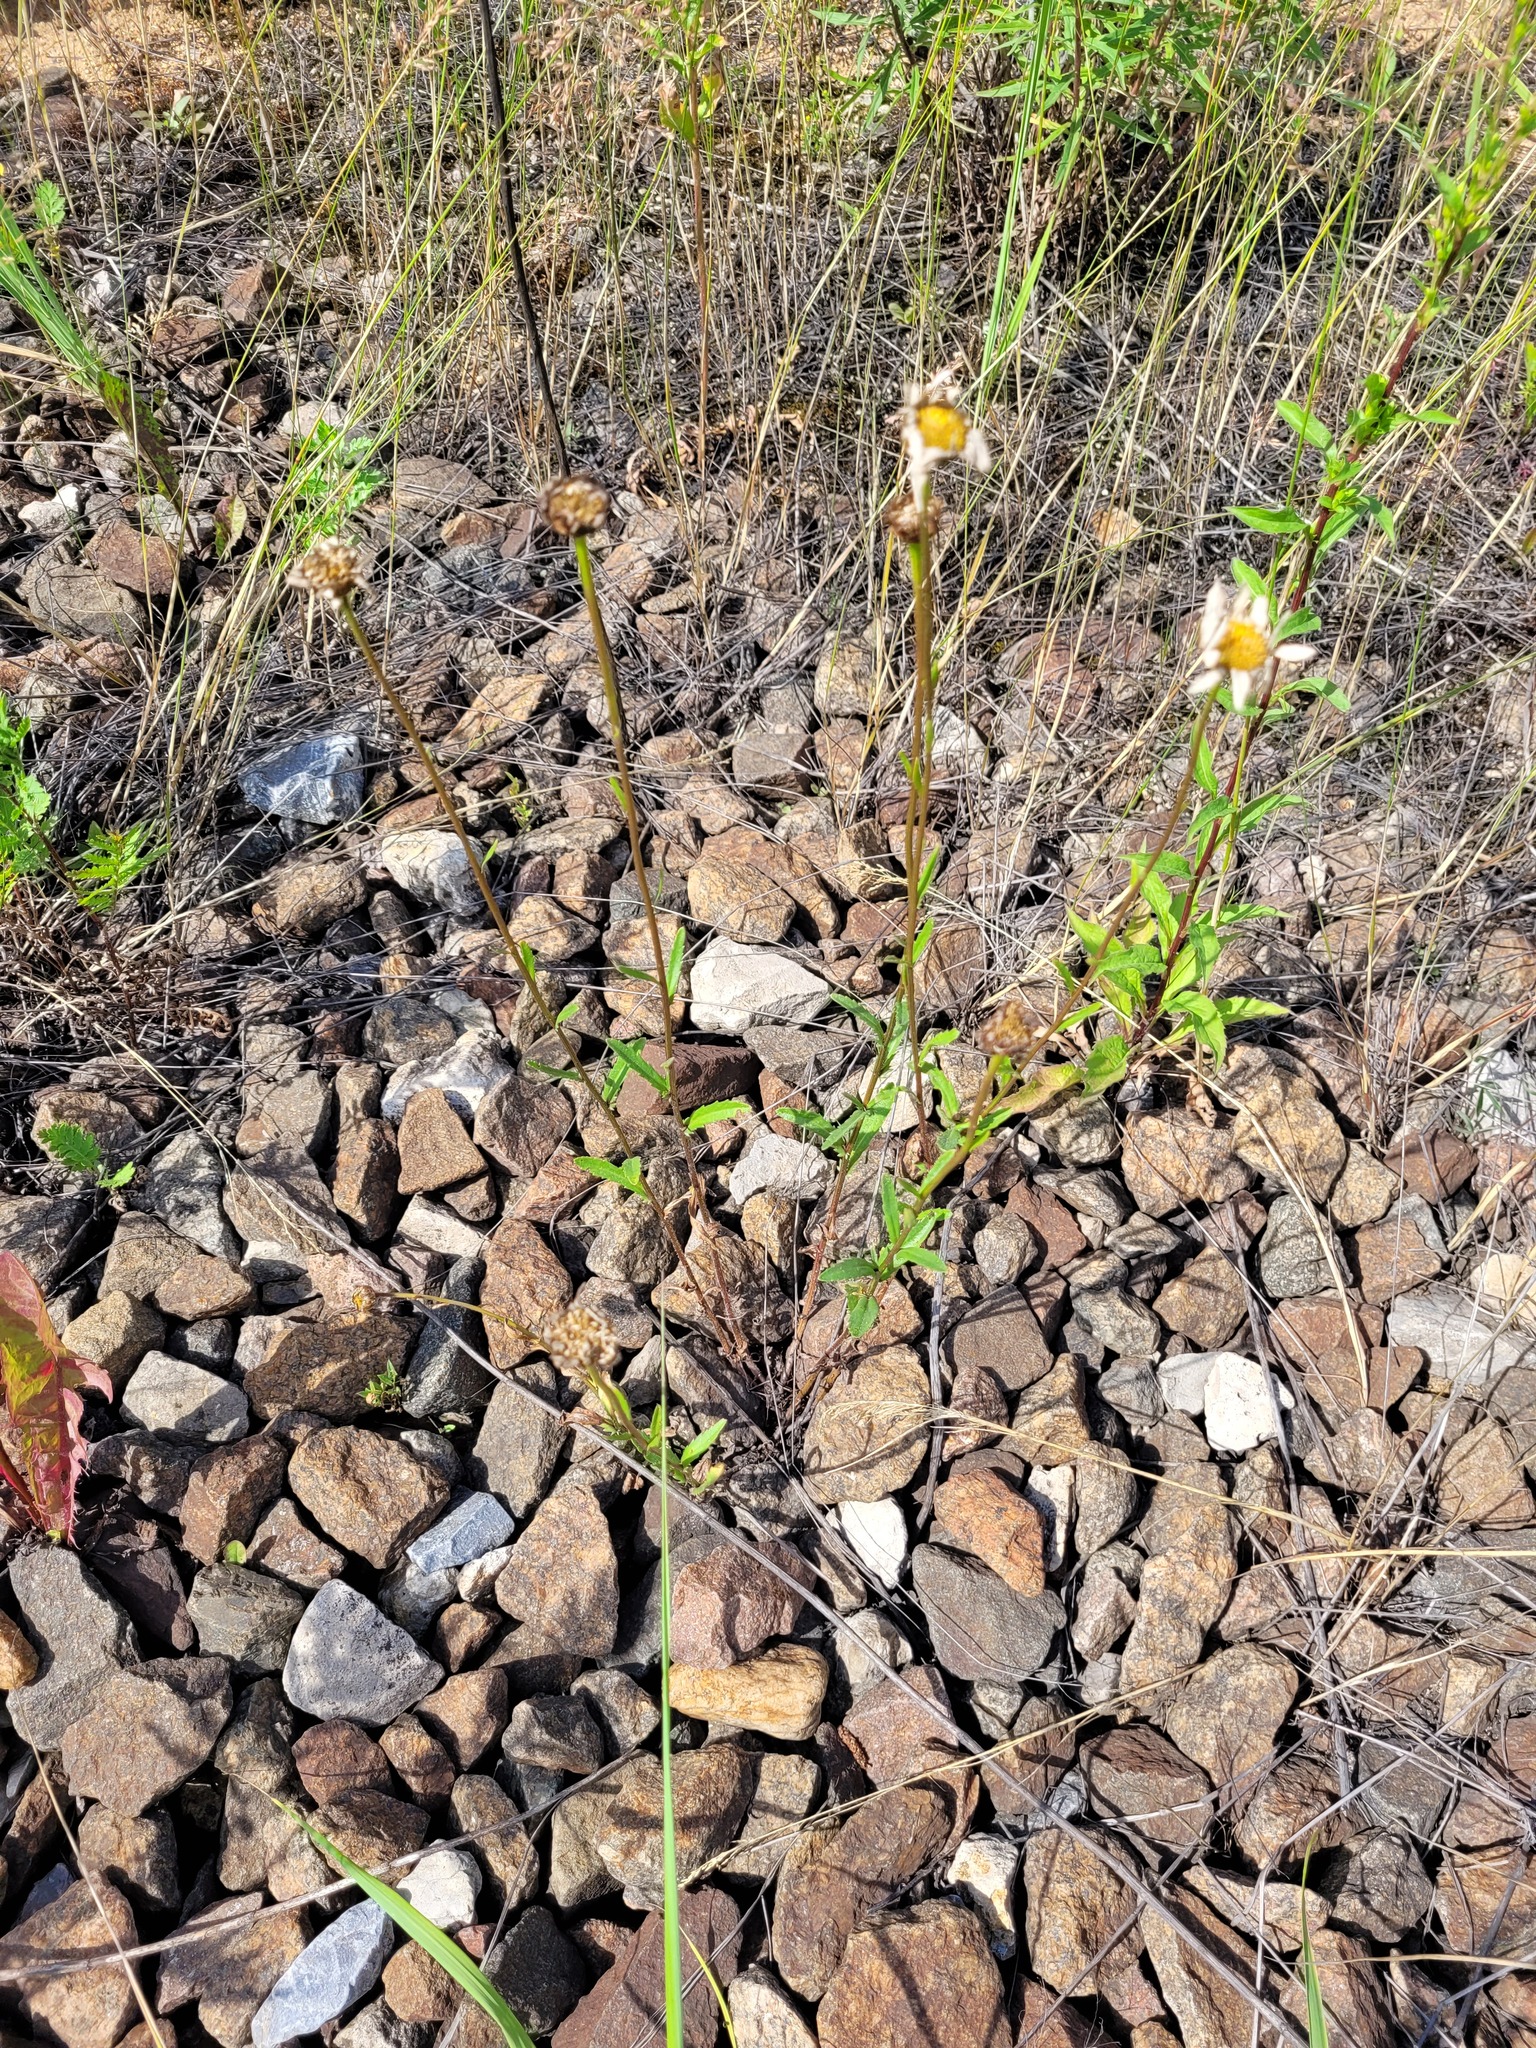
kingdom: Plantae
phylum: Tracheophyta
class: Magnoliopsida
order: Asterales
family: Asteraceae
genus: Leucanthemum
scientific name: Leucanthemum vulgare
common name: Oxeye daisy
